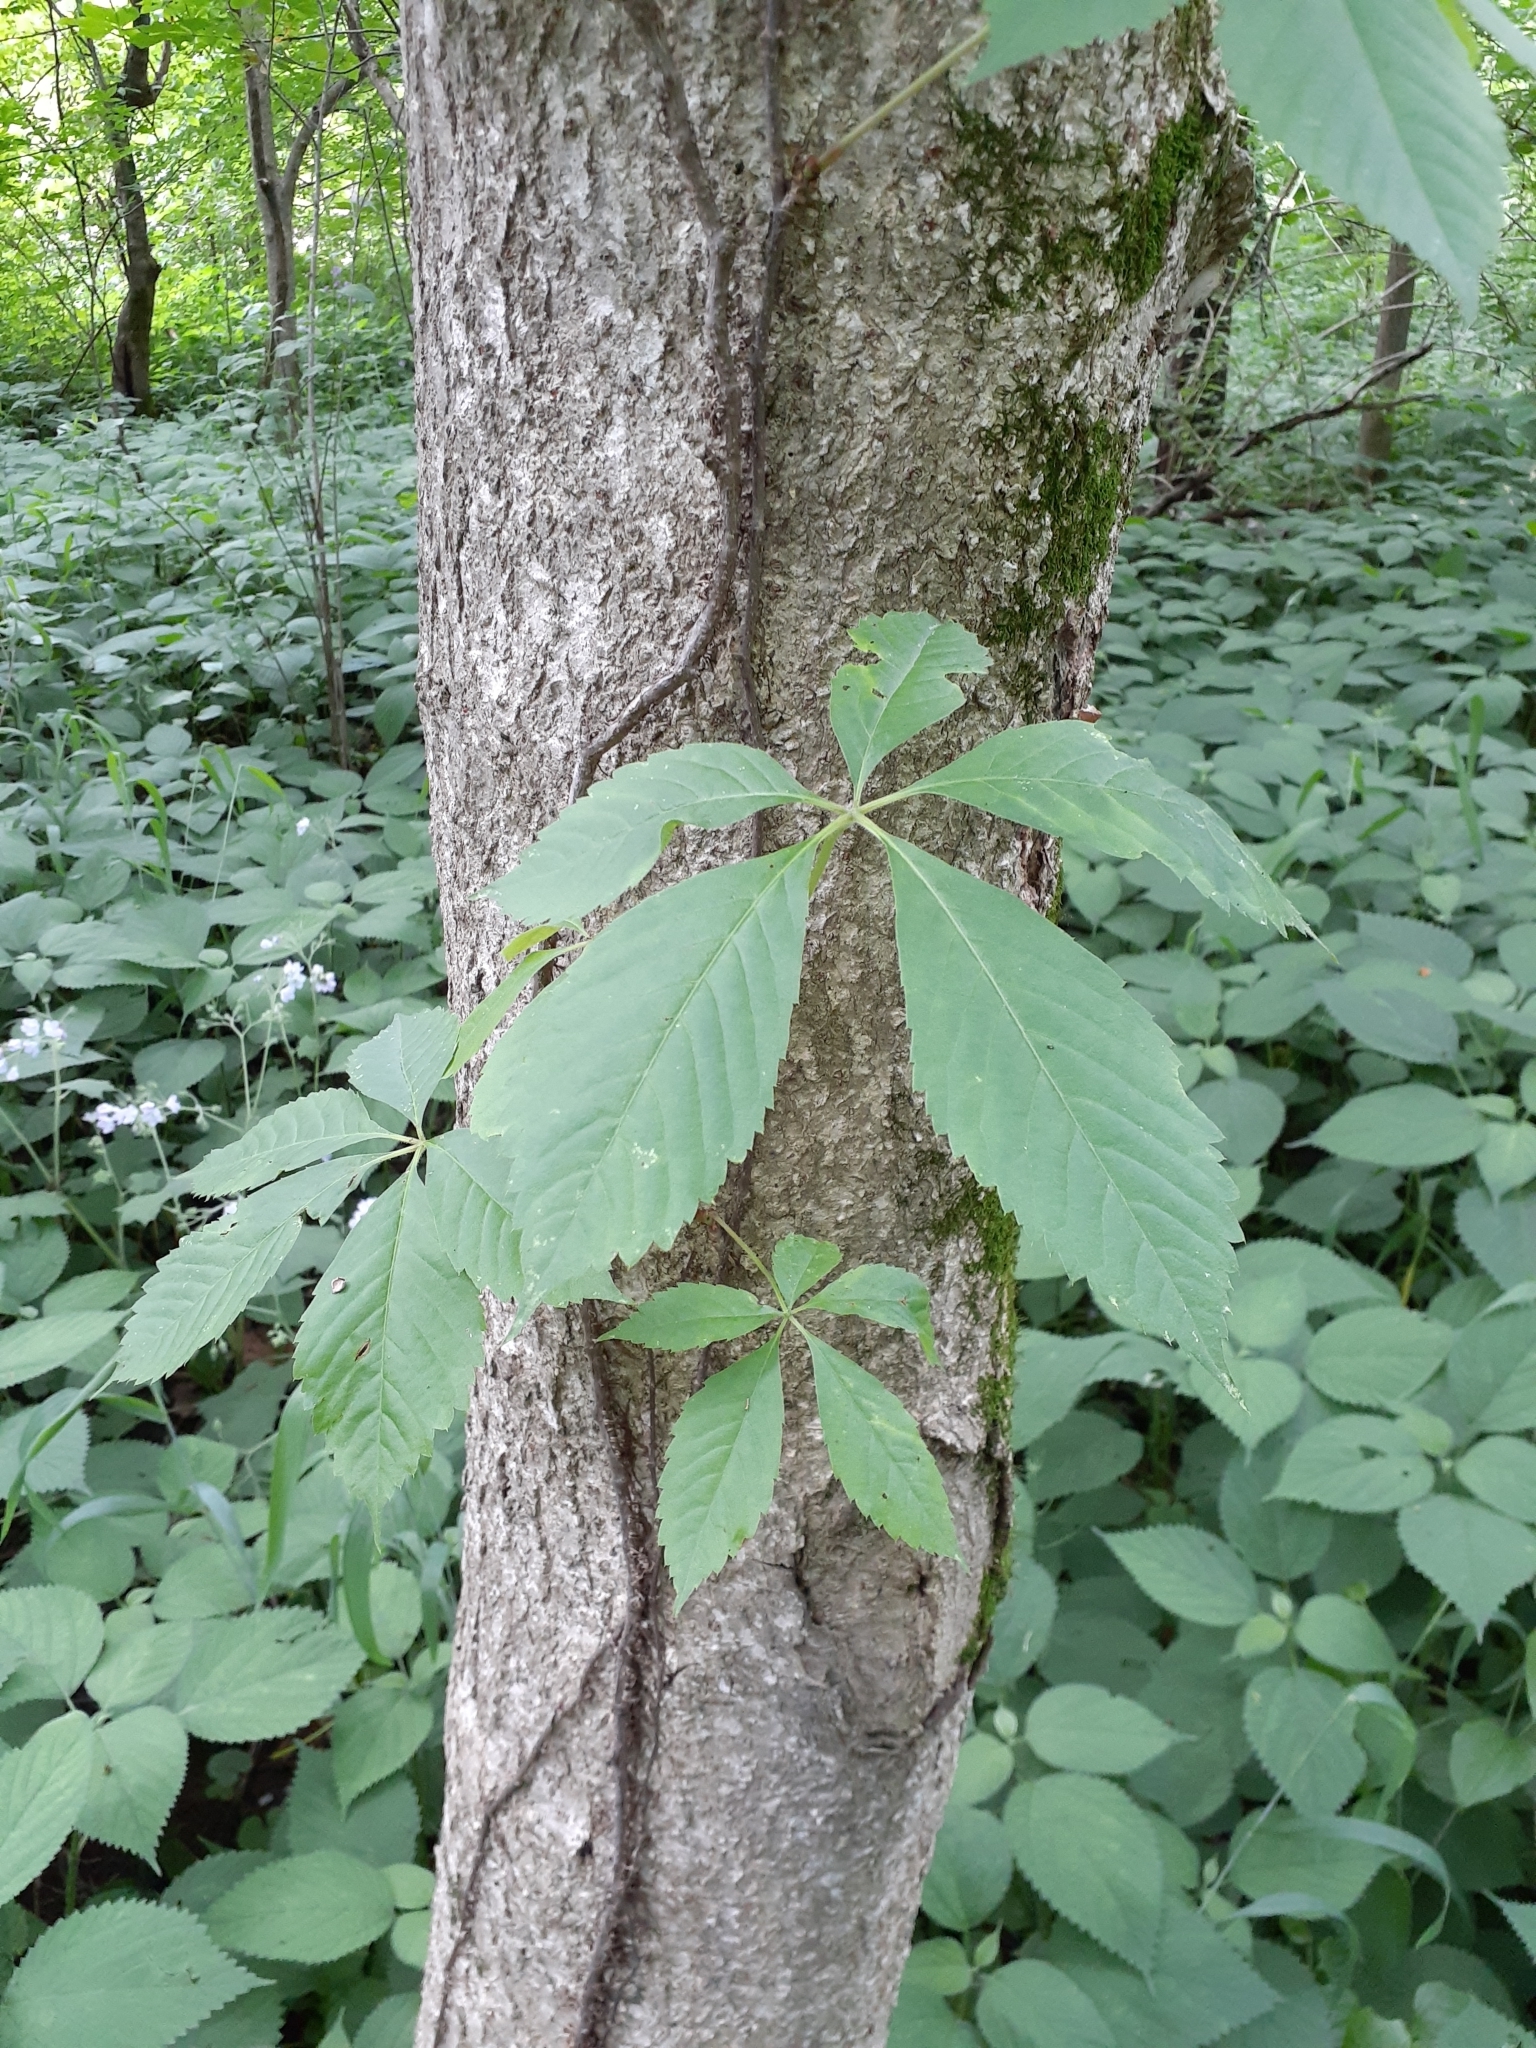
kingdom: Plantae
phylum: Tracheophyta
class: Magnoliopsida
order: Vitales
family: Vitaceae
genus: Parthenocissus
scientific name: Parthenocissus quinquefolia
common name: Virginia-creeper
